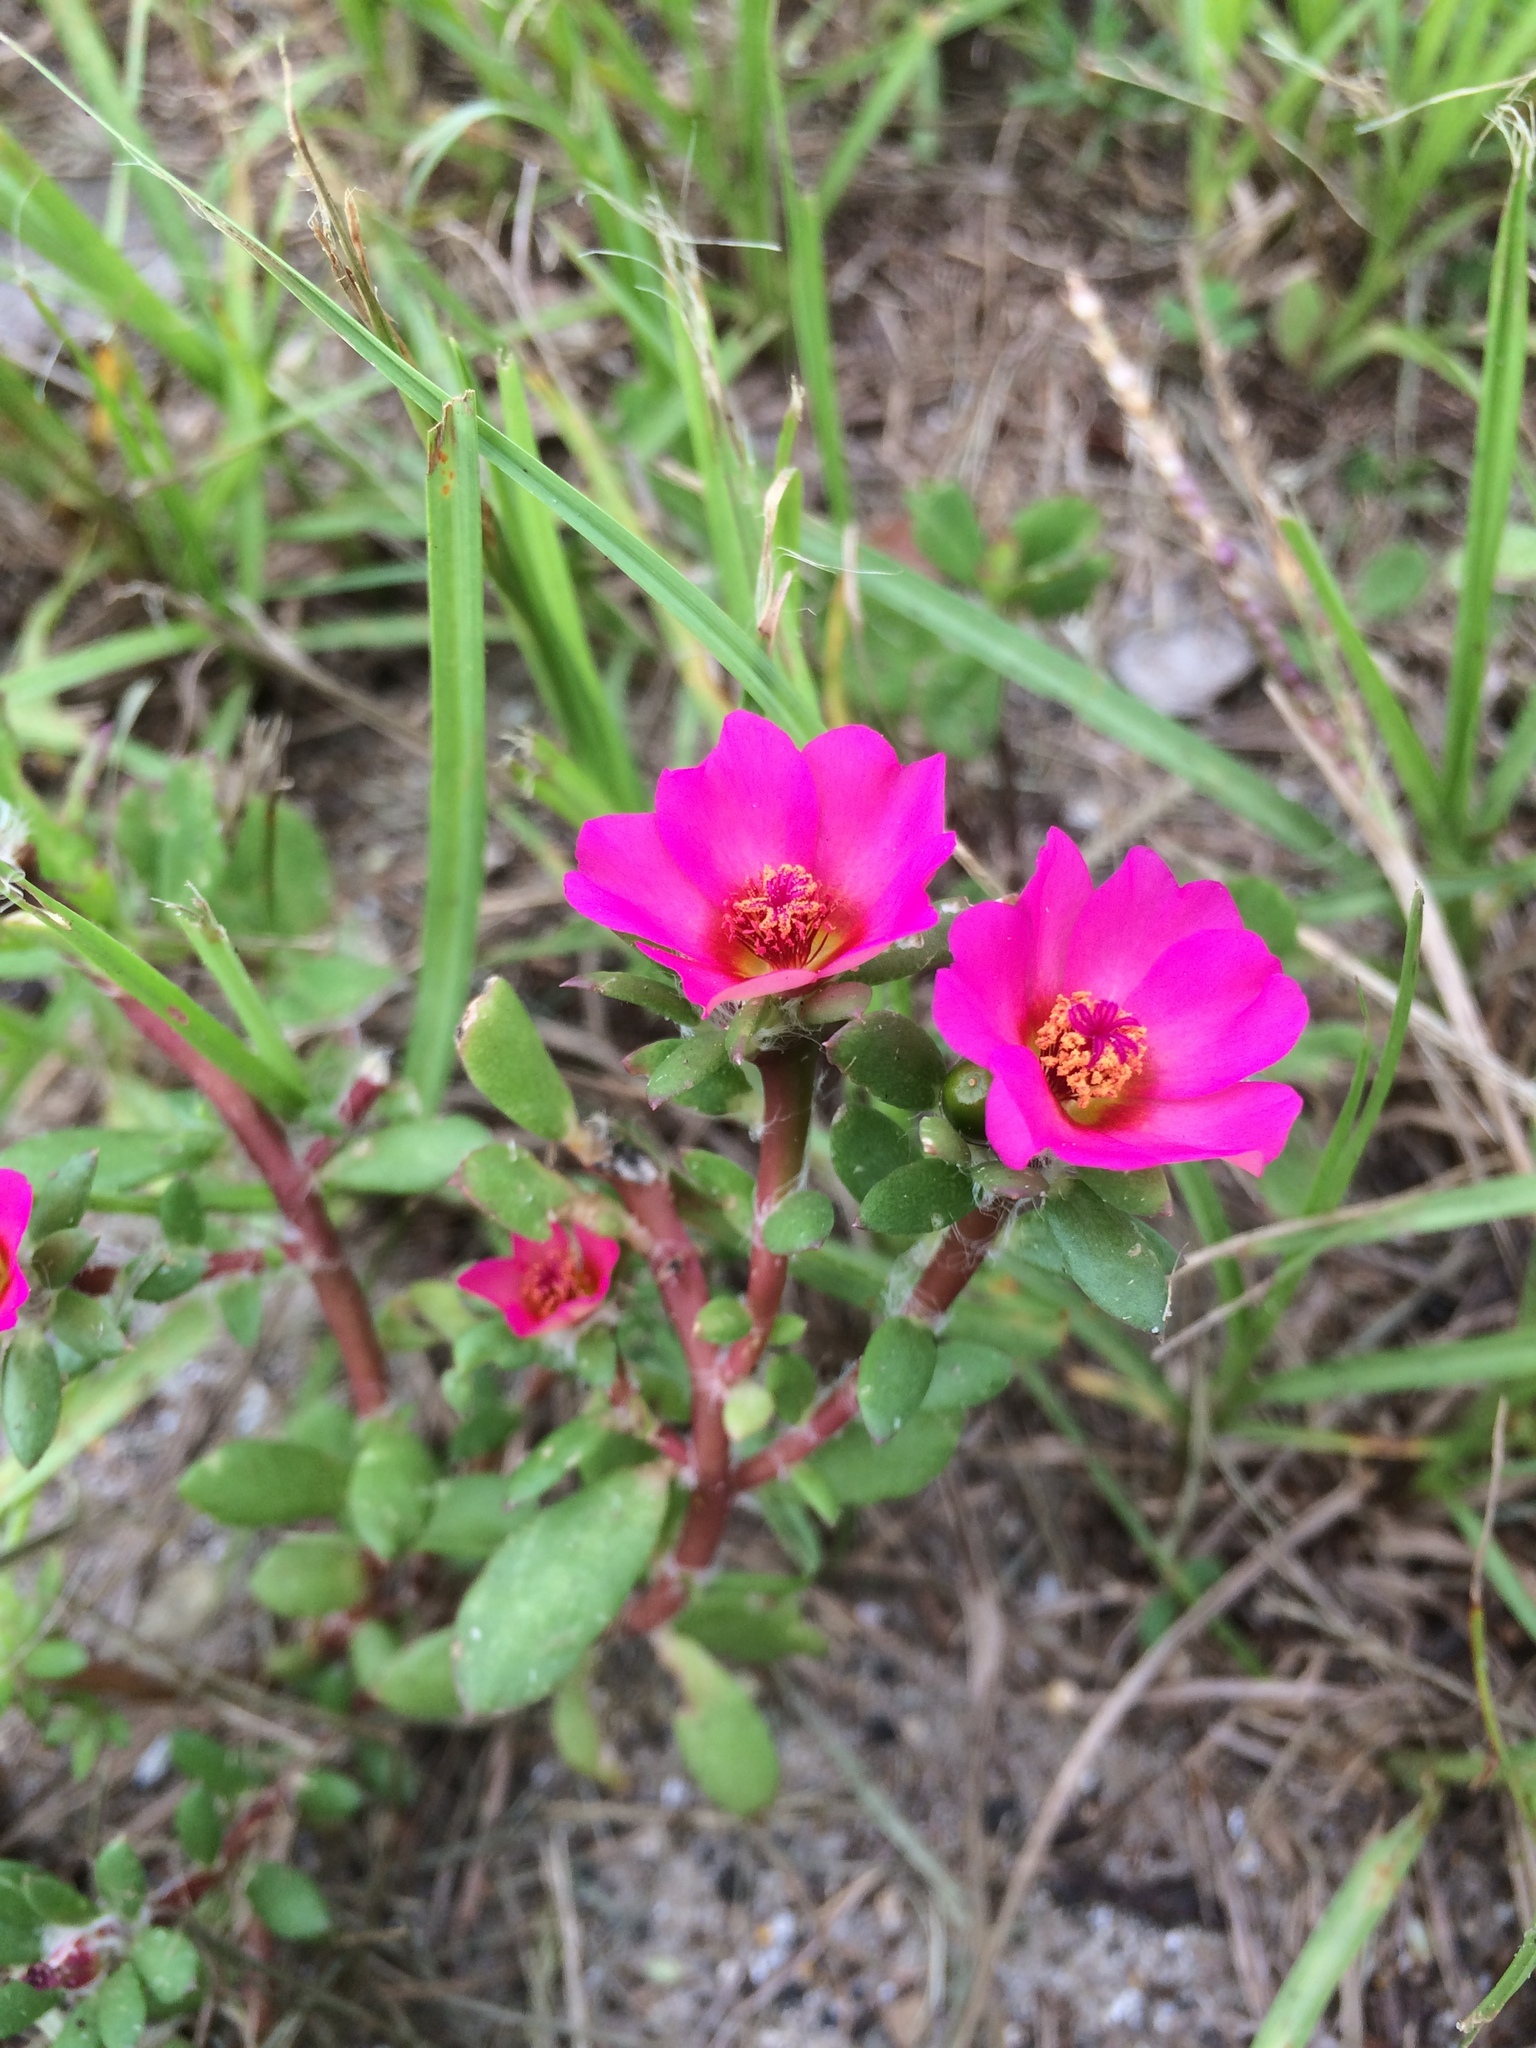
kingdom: Plantae
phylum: Tracheophyta
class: Magnoliopsida
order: Caryophyllales
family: Portulacaceae
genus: Portulaca
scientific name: Portulaca amilis
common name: Paraguayan purslane
